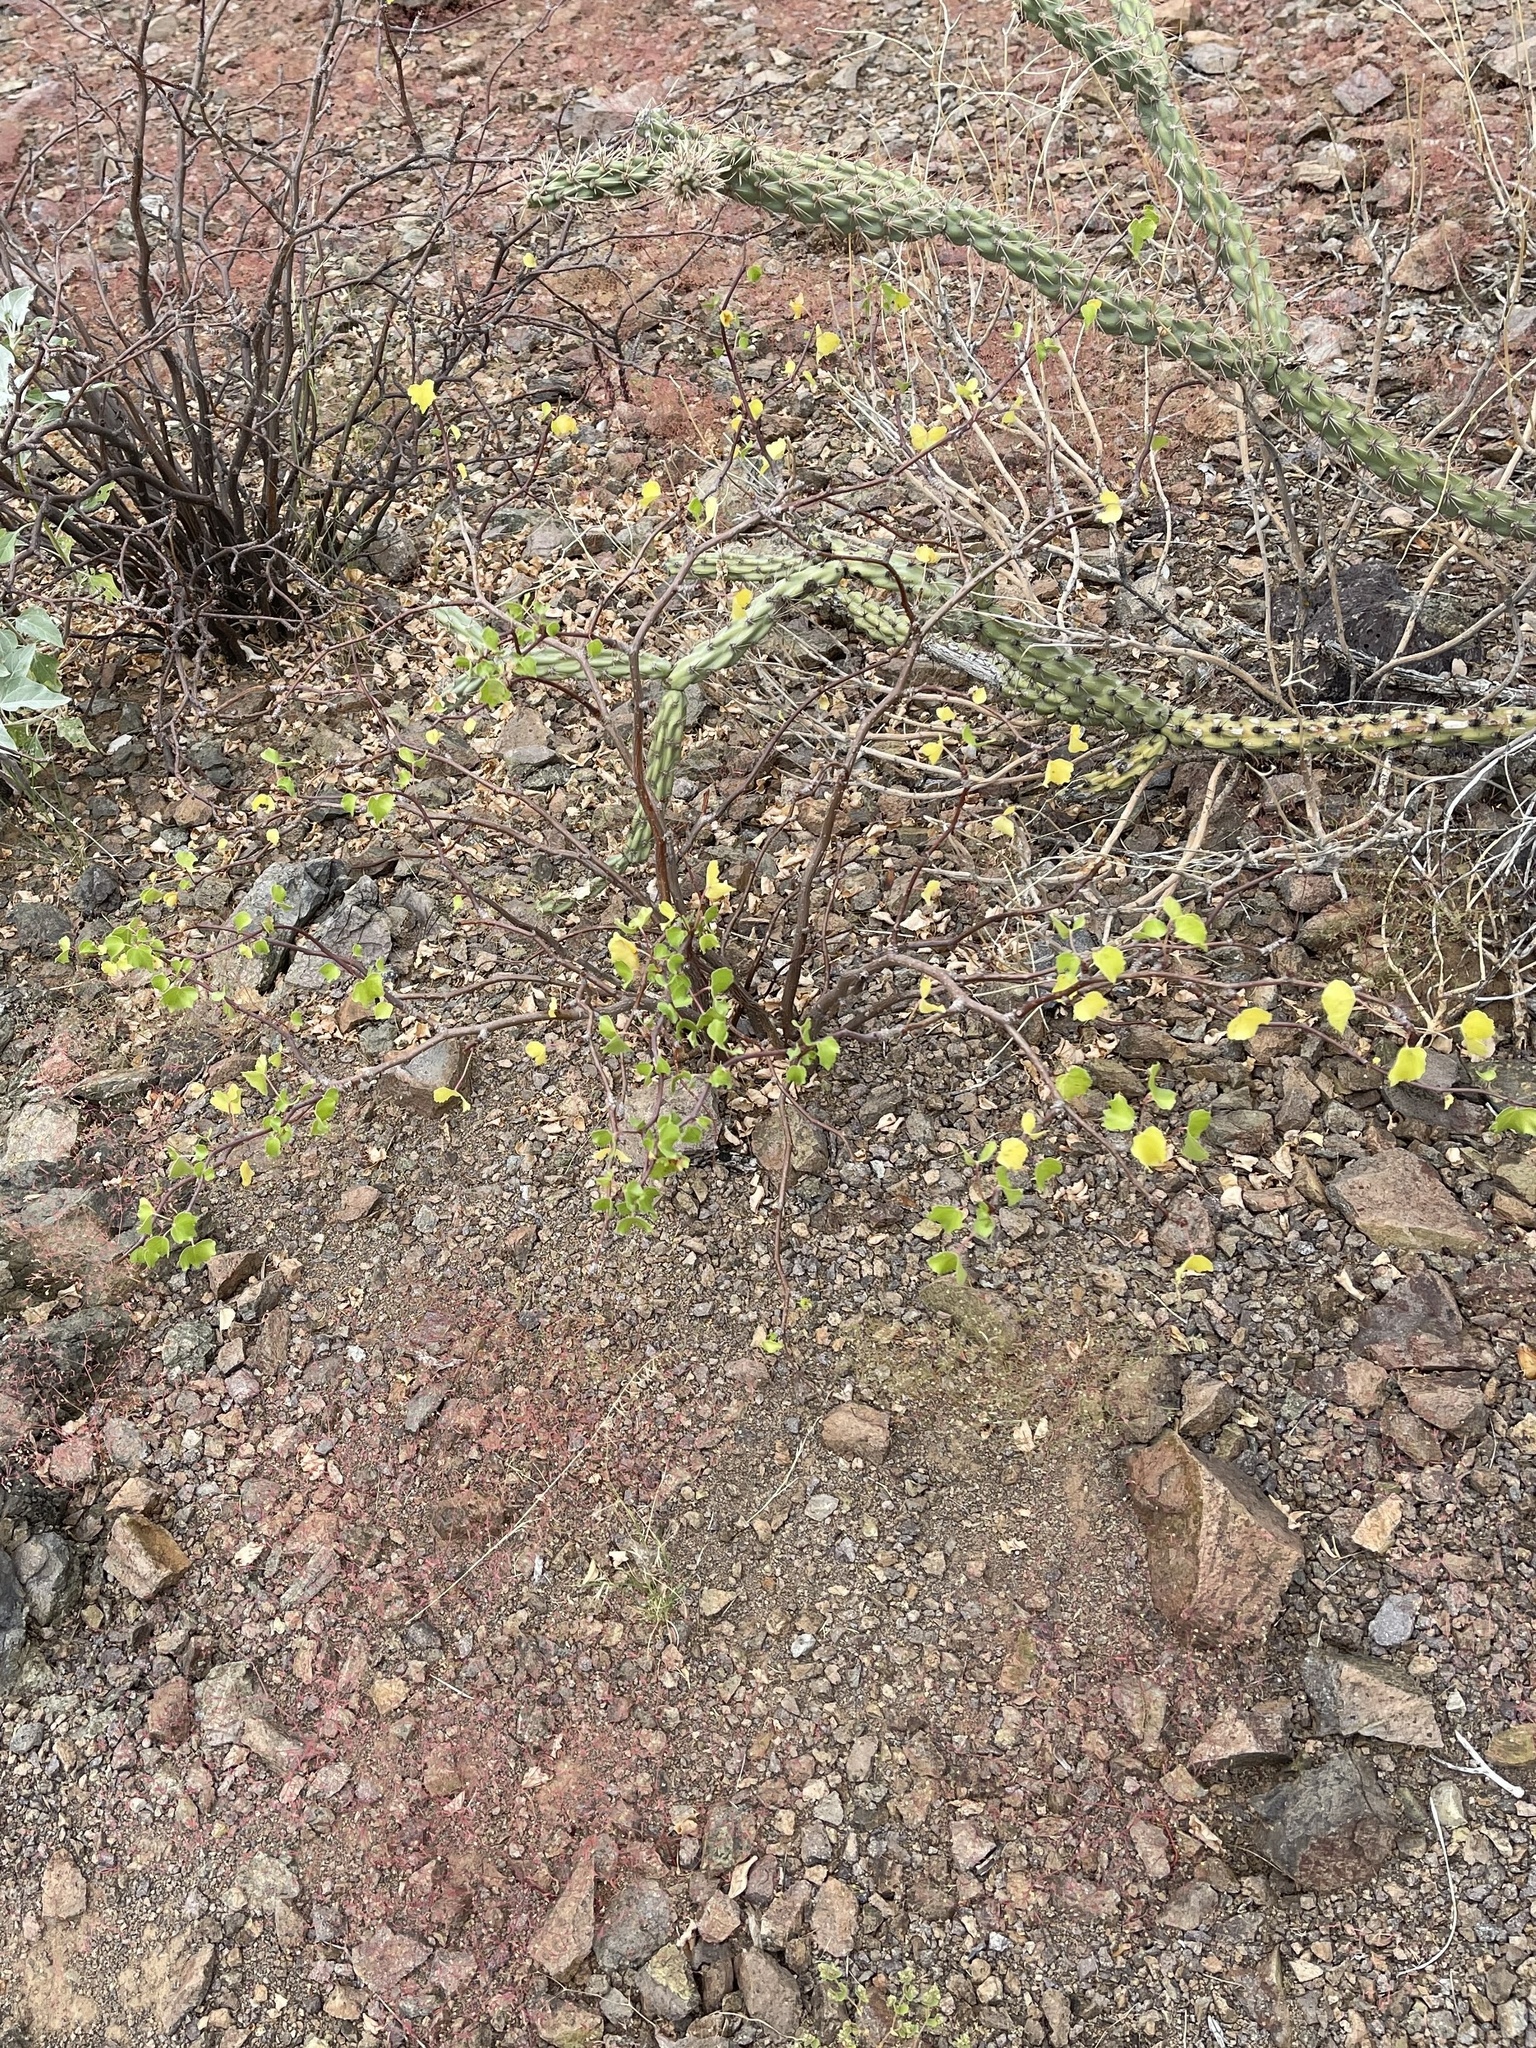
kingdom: Plantae
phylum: Tracheophyta
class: Magnoliopsida
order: Malpighiales
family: Euphorbiaceae
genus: Jatropha
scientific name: Jatropha cardiophylla
